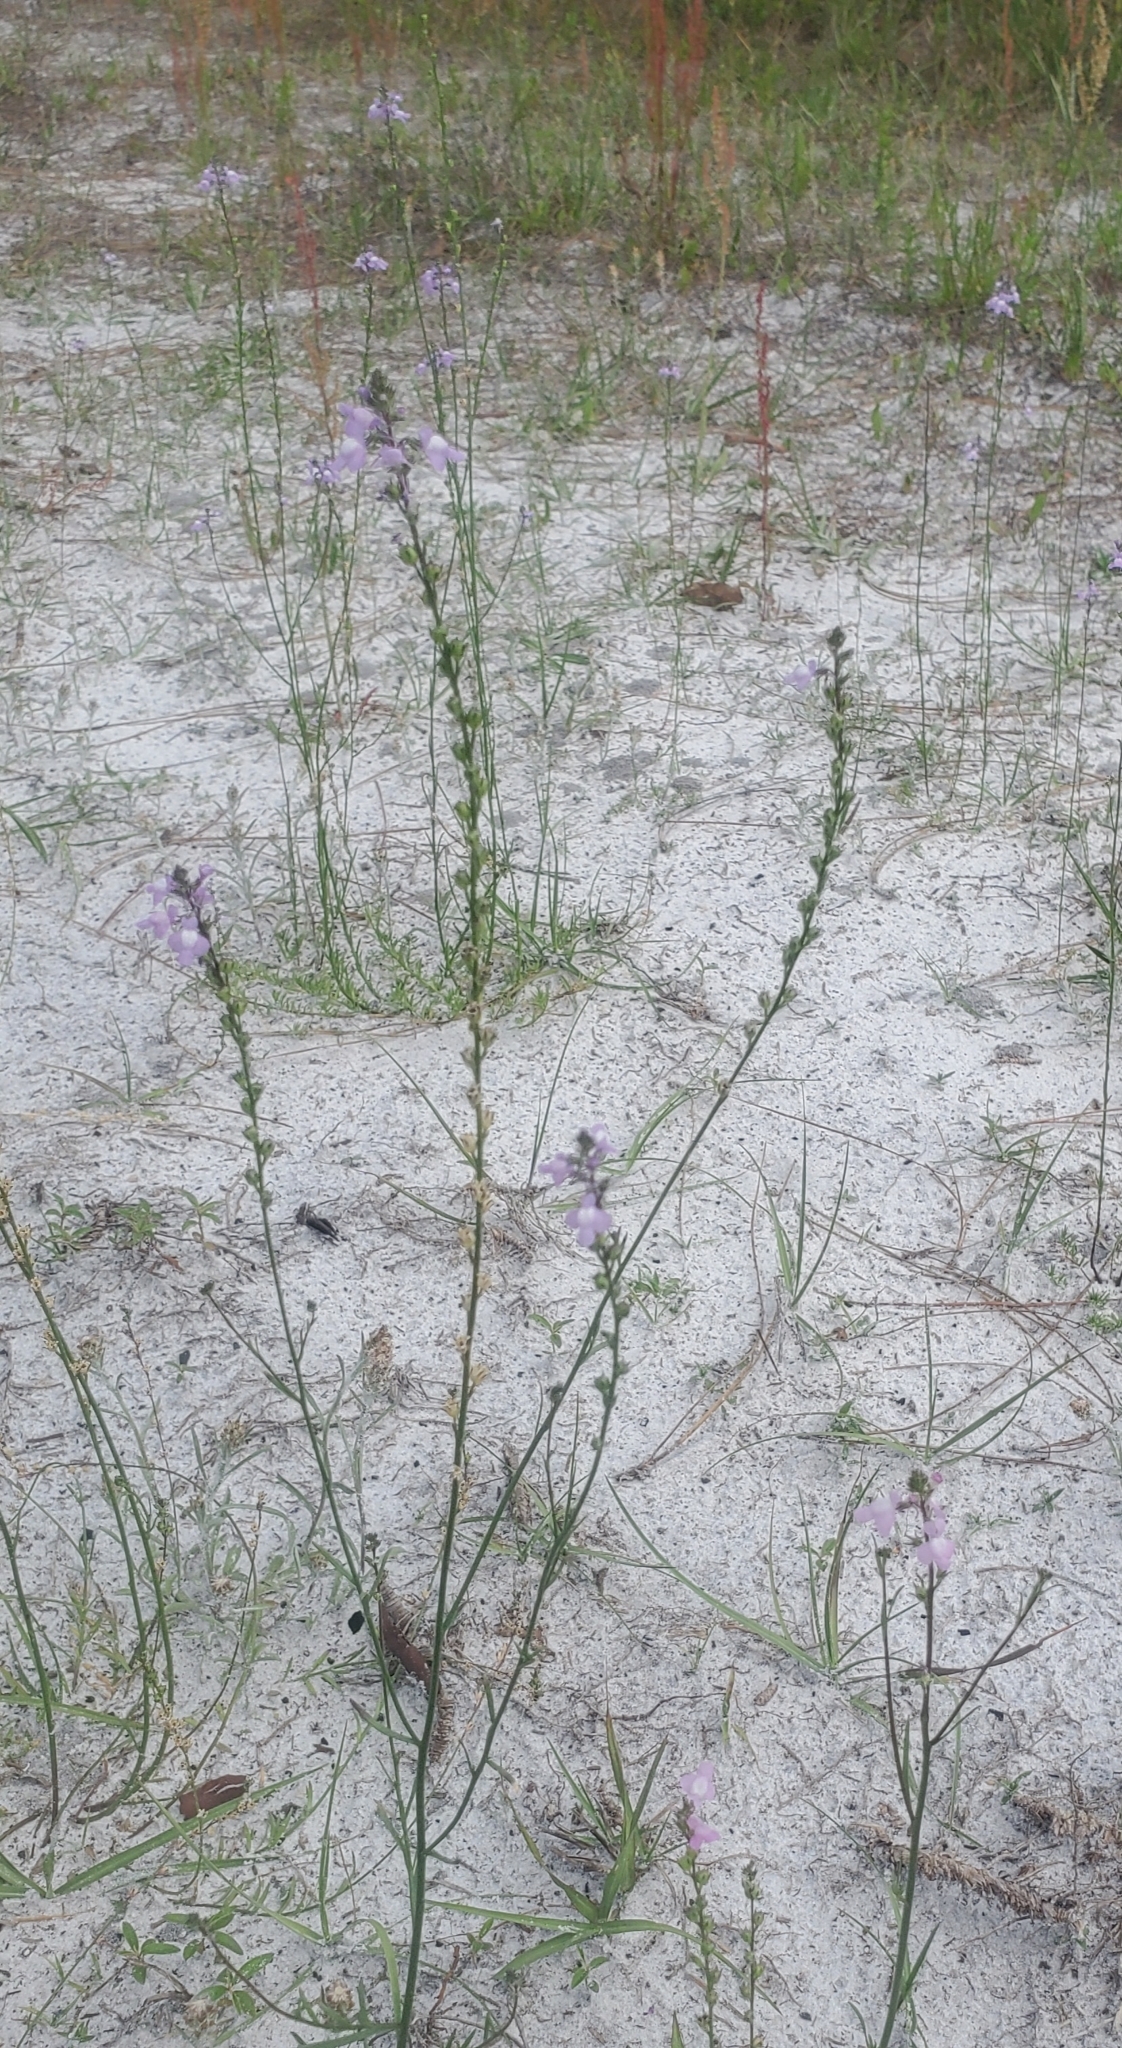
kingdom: Plantae
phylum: Tracheophyta
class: Magnoliopsida
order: Lamiales
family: Plantaginaceae
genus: Nuttallanthus
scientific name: Nuttallanthus canadensis
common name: Blue toadflax
